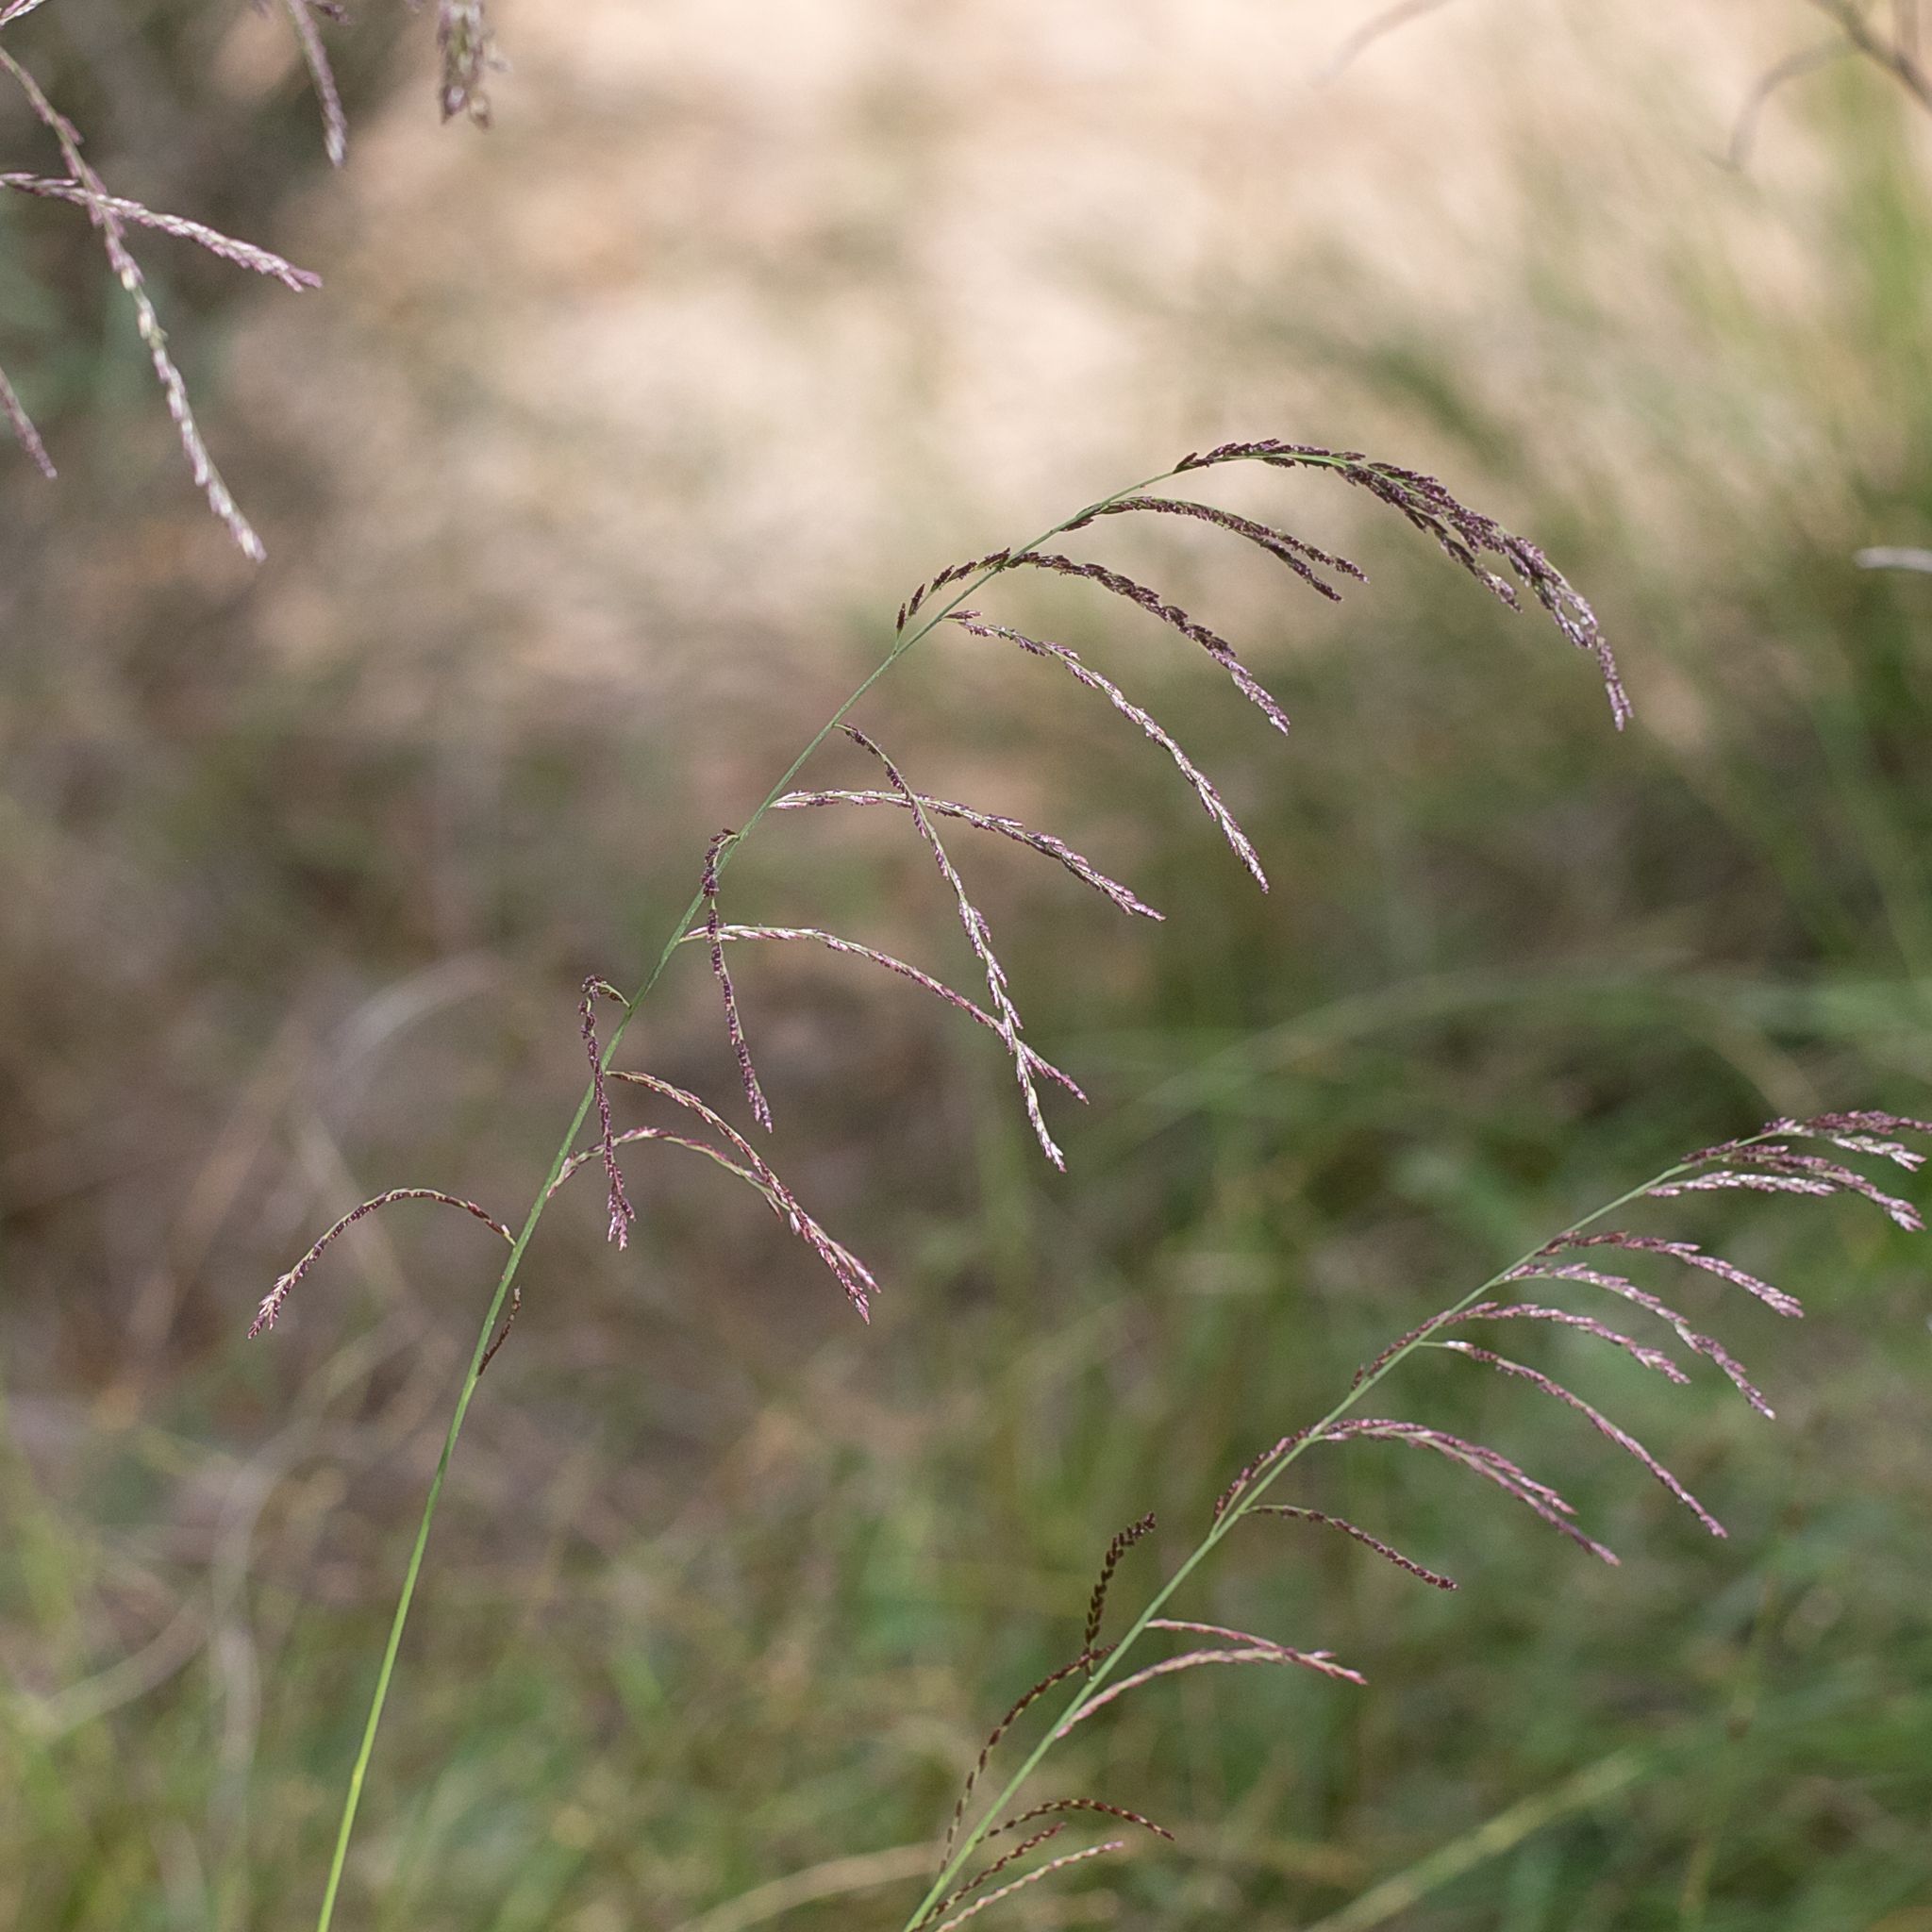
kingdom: Plantae
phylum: Tracheophyta
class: Liliopsida
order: Poales
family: Poaceae
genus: Leptochloa
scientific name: Leptochloa decipiens
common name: Australian sprangletop
